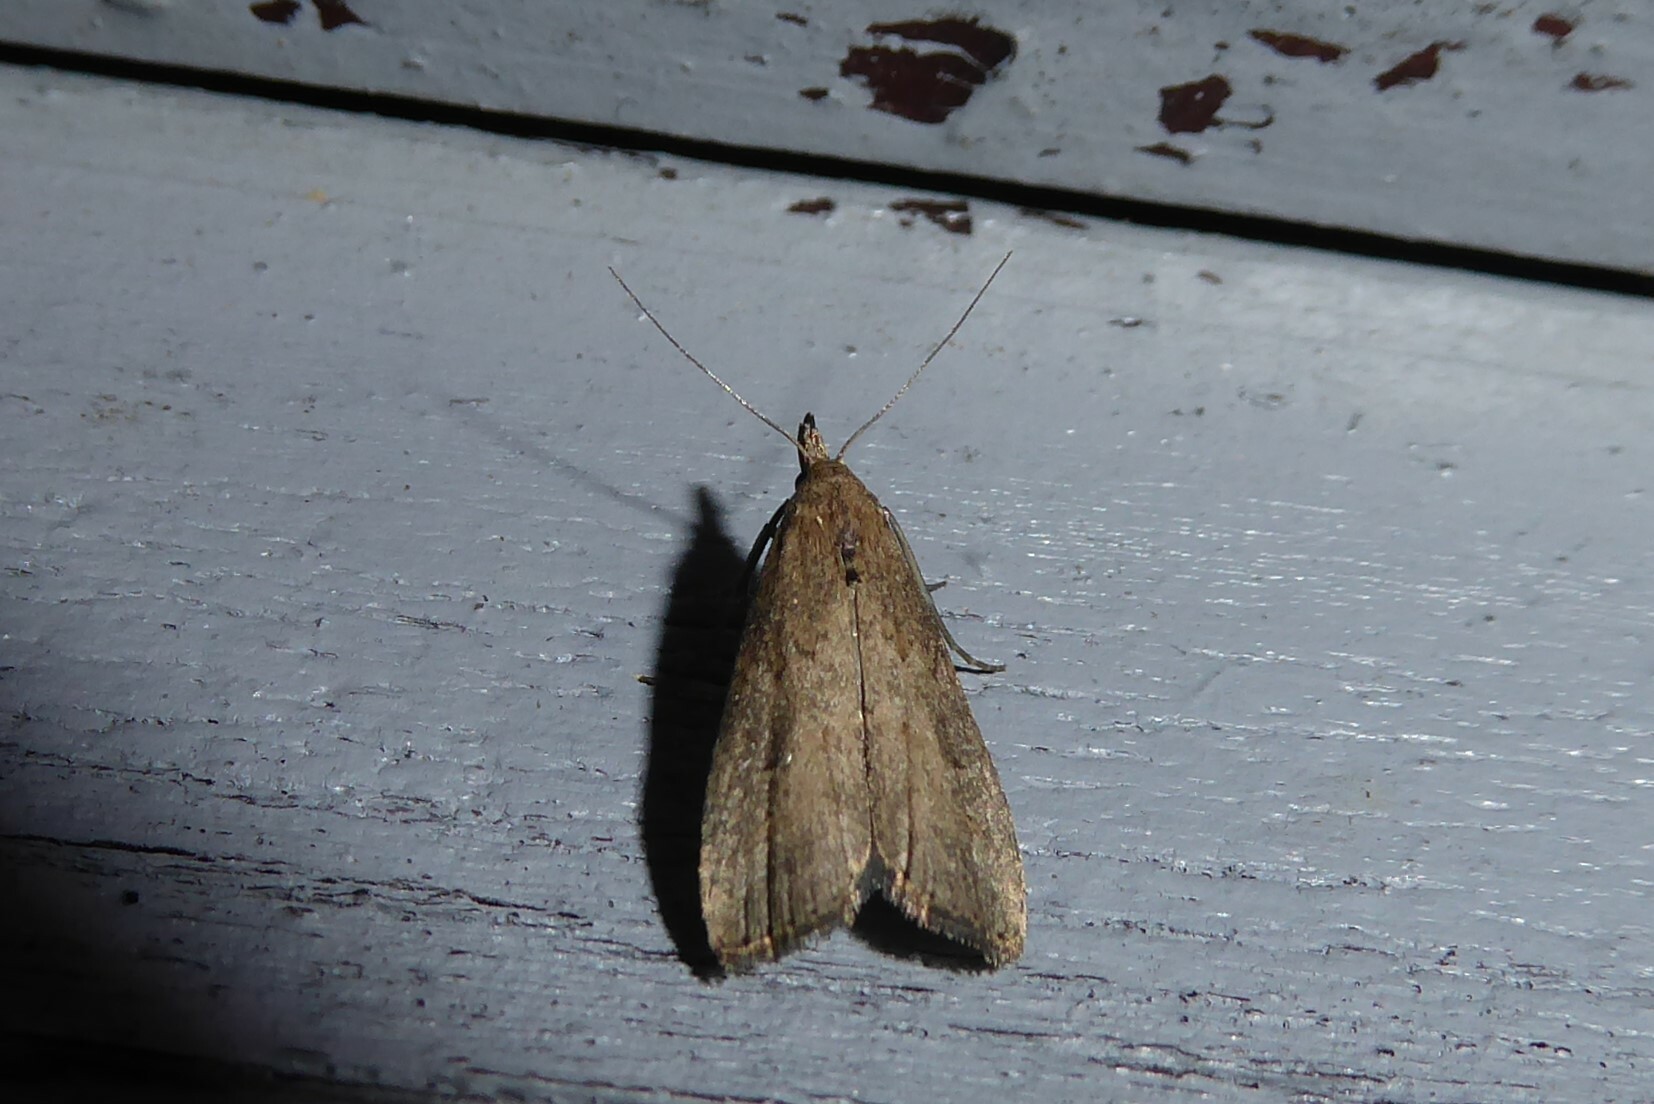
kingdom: Animalia
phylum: Arthropoda
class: Insecta
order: Lepidoptera
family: Erebidae
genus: Schrankia
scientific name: Schrankia costaestrigalis
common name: Pinion-streaked snout
